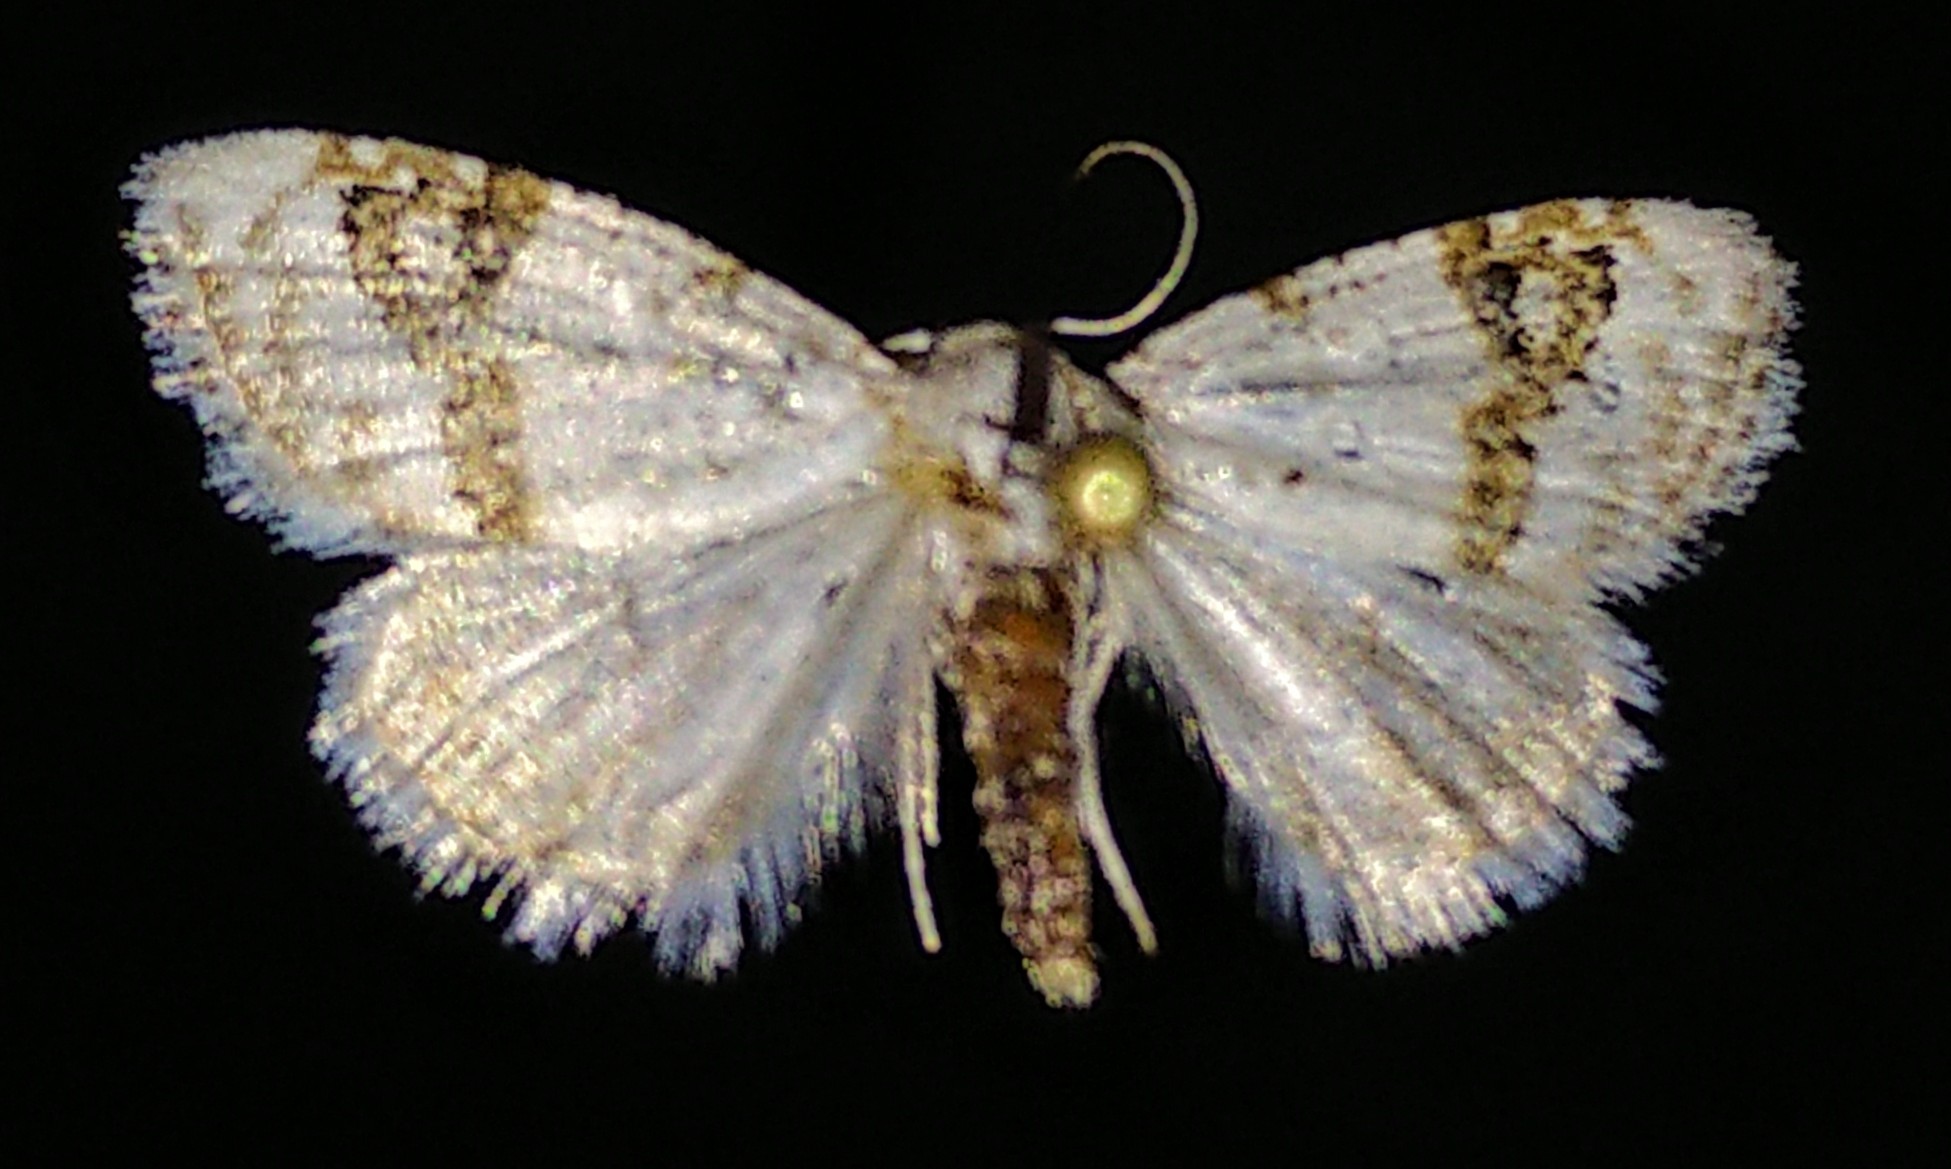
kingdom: Animalia
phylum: Arthropoda
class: Insecta
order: Lepidoptera
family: Nolidae
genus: Nola
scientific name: Nola cilicoides
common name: Blurry-patched nola moth
